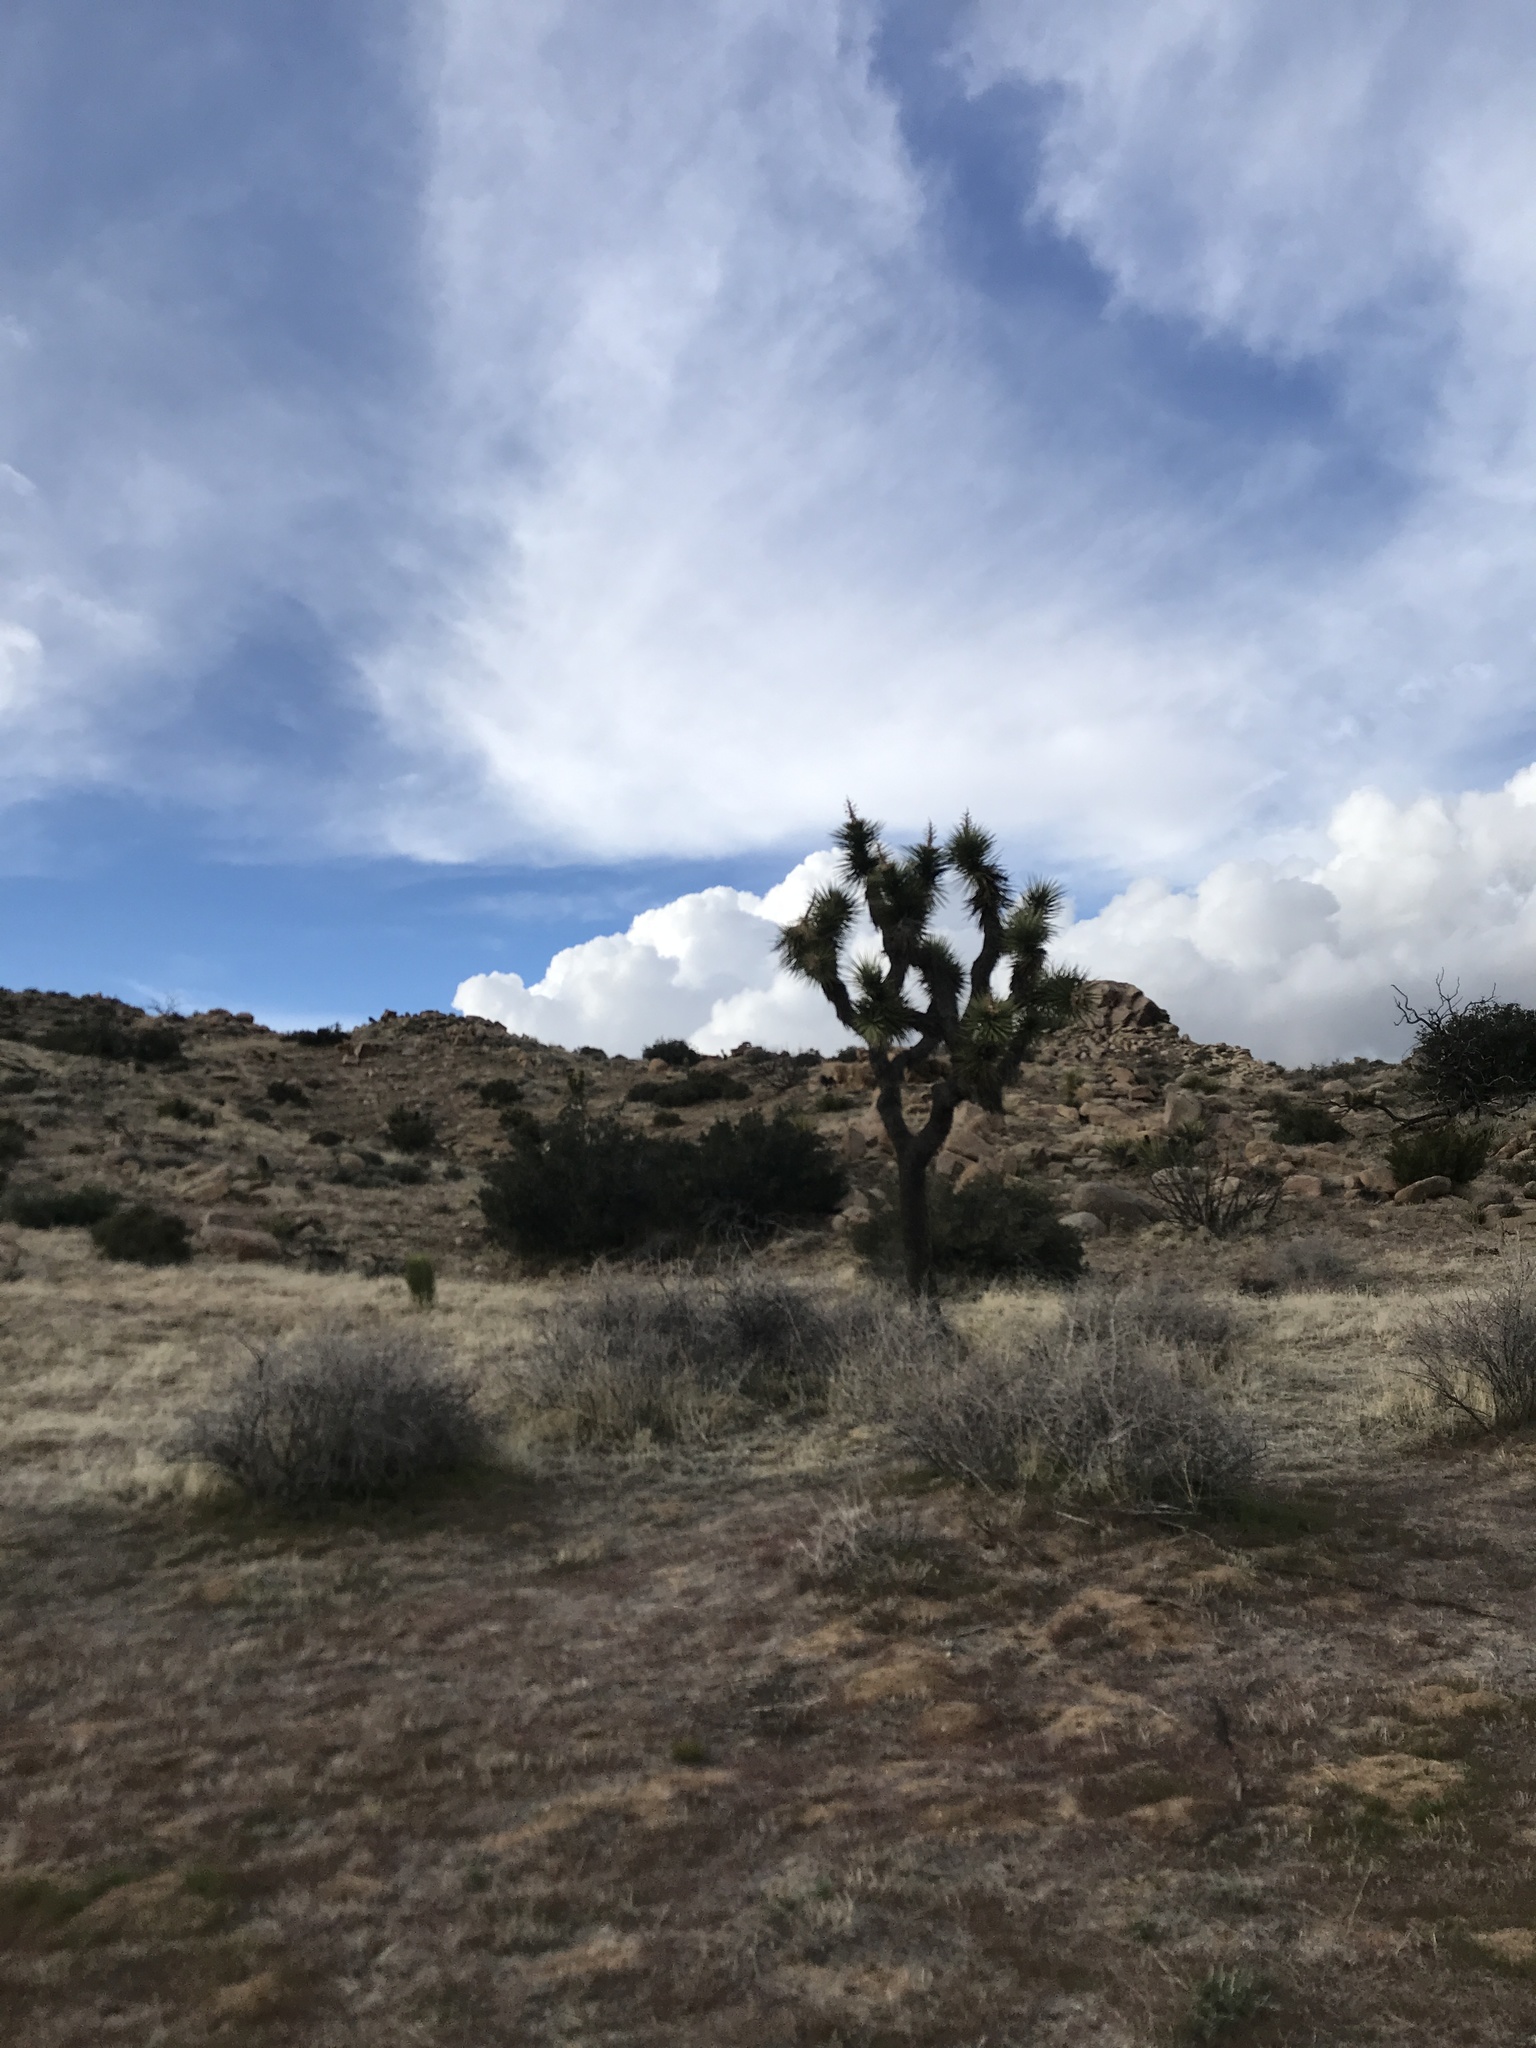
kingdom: Plantae
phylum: Tracheophyta
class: Liliopsida
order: Asparagales
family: Asparagaceae
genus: Yucca
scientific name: Yucca brevifolia
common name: Joshua tree
